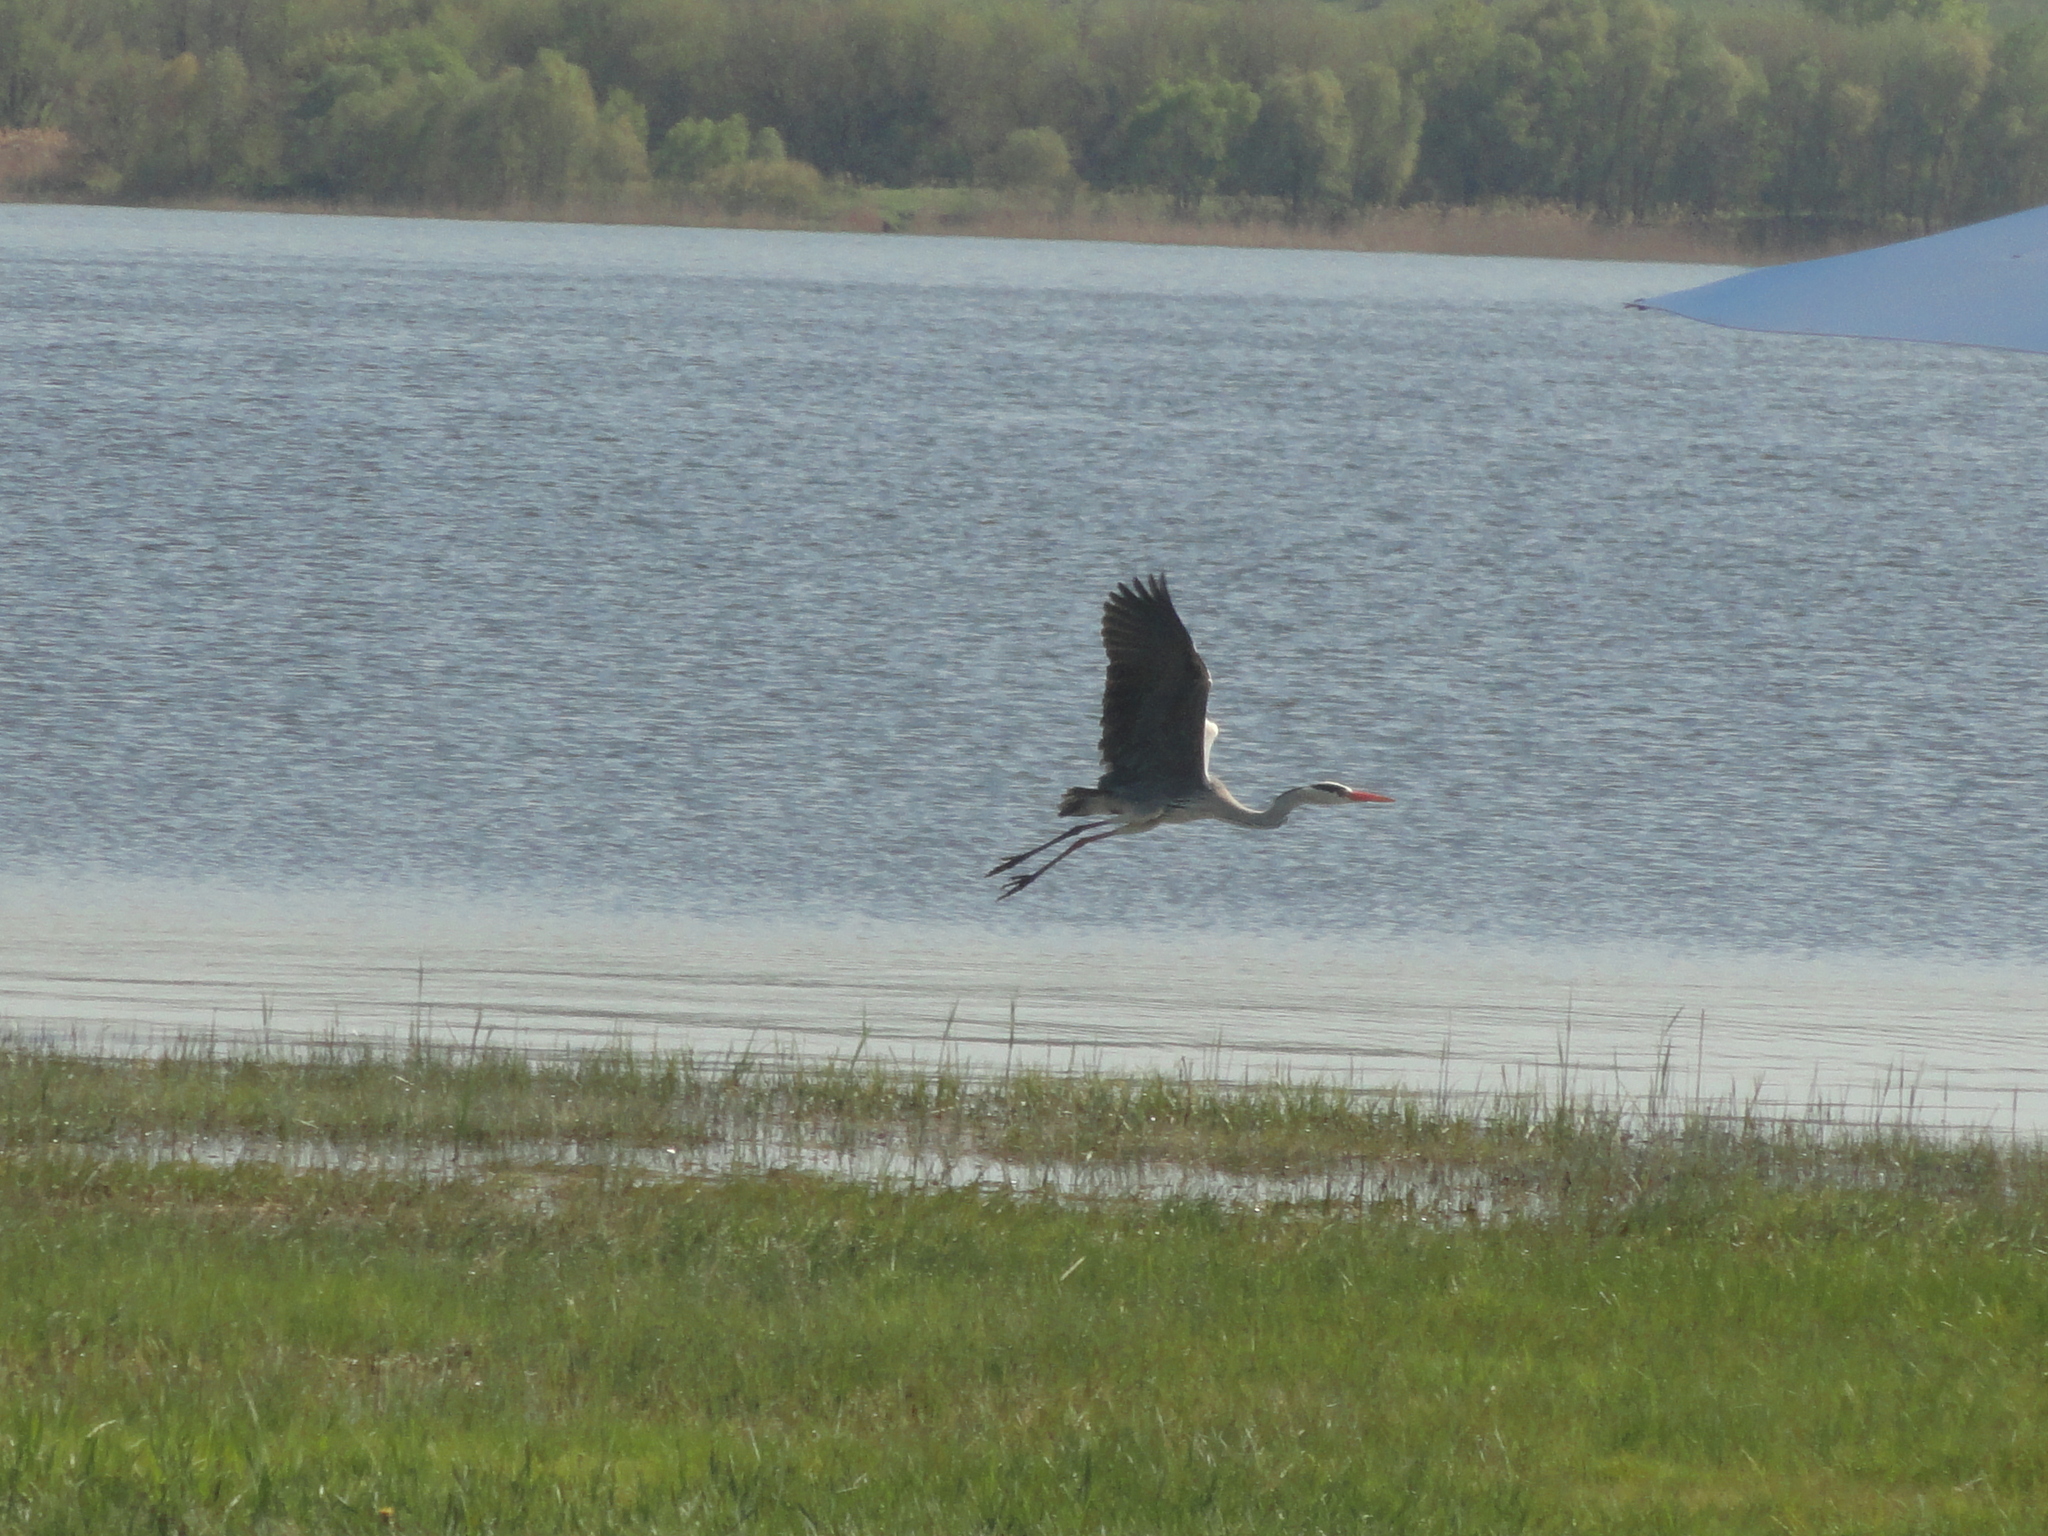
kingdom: Animalia
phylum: Chordata
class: Aves
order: Pelecaniformes
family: Ardeidae
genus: Ardea
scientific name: Ardea cinerea
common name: Grey heron
